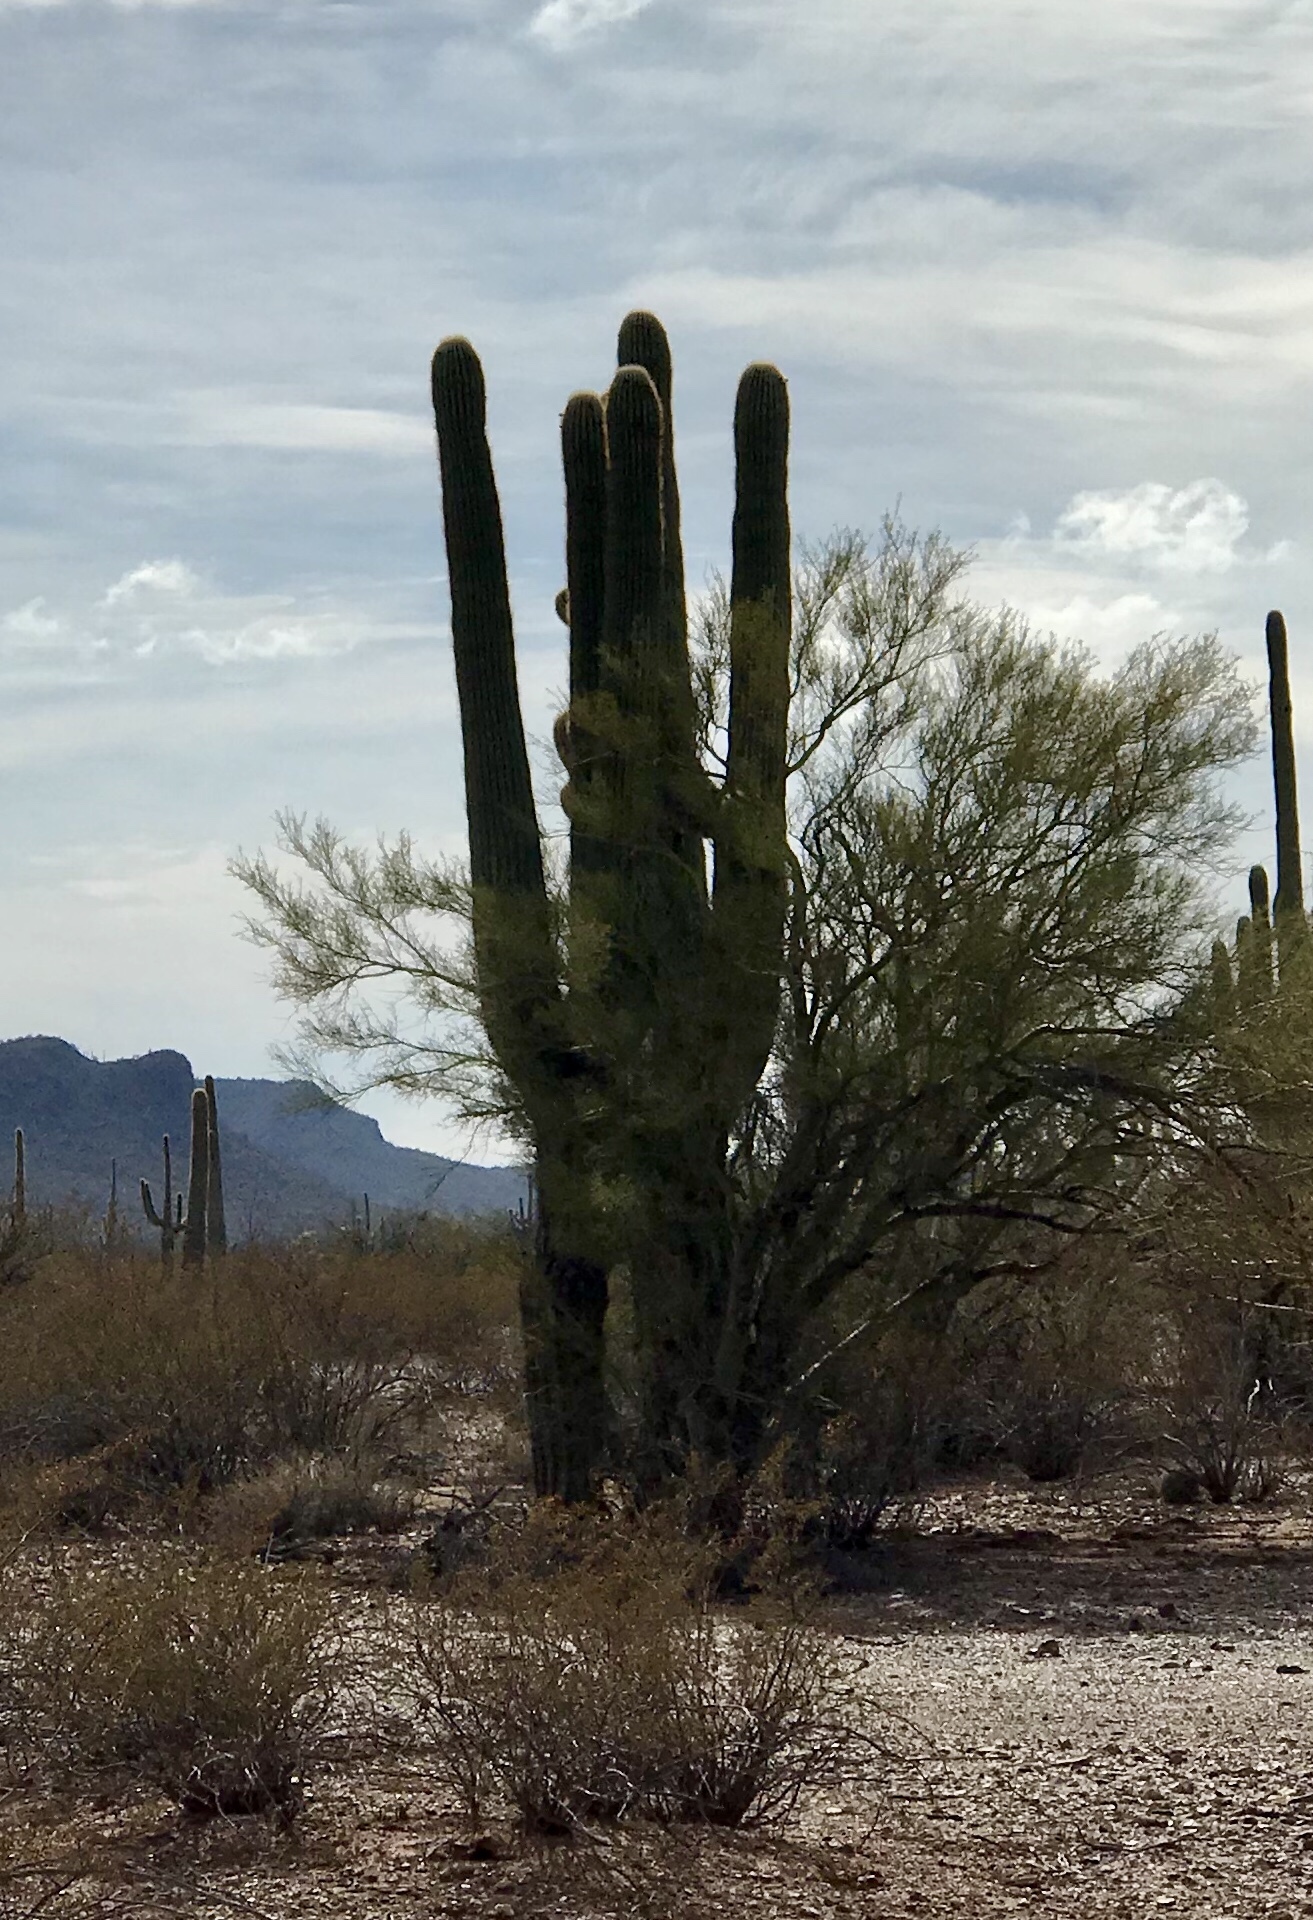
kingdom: Plantae
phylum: Tracheophyta
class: Magnoliopsida
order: Caryophyllales
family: Cactaceae
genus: Carnegiea
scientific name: Carnegiea gigantea
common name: Saguaro
